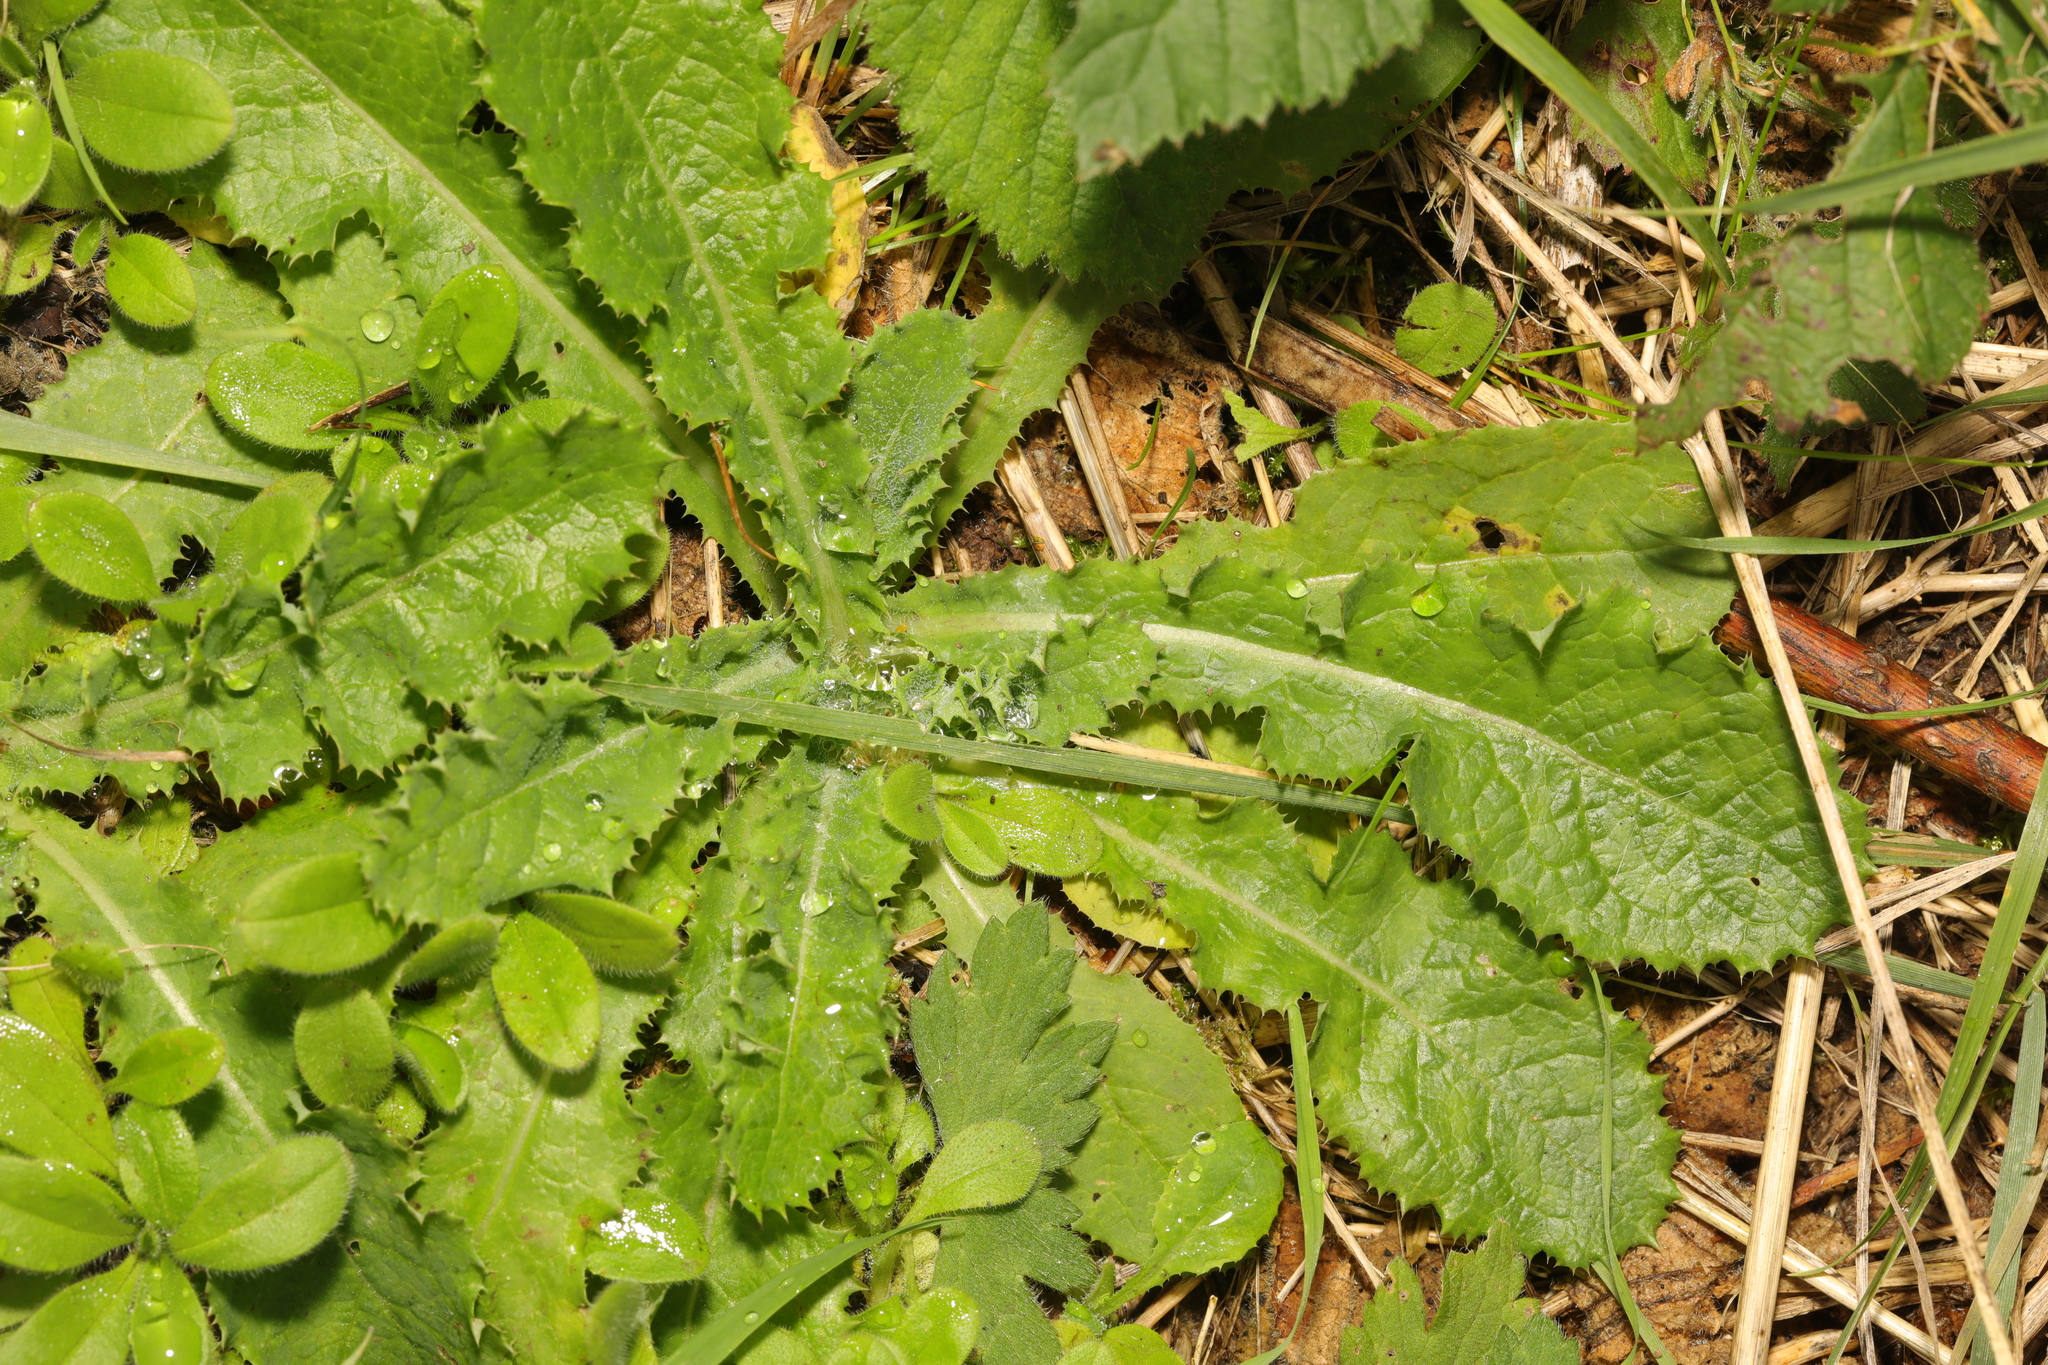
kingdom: Plantae
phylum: Tracheophyta
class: Magnoliopsida
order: Asterales
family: Asteraceae
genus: Sonchus
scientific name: Sonchus asper
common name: Prickly sow-thistle
